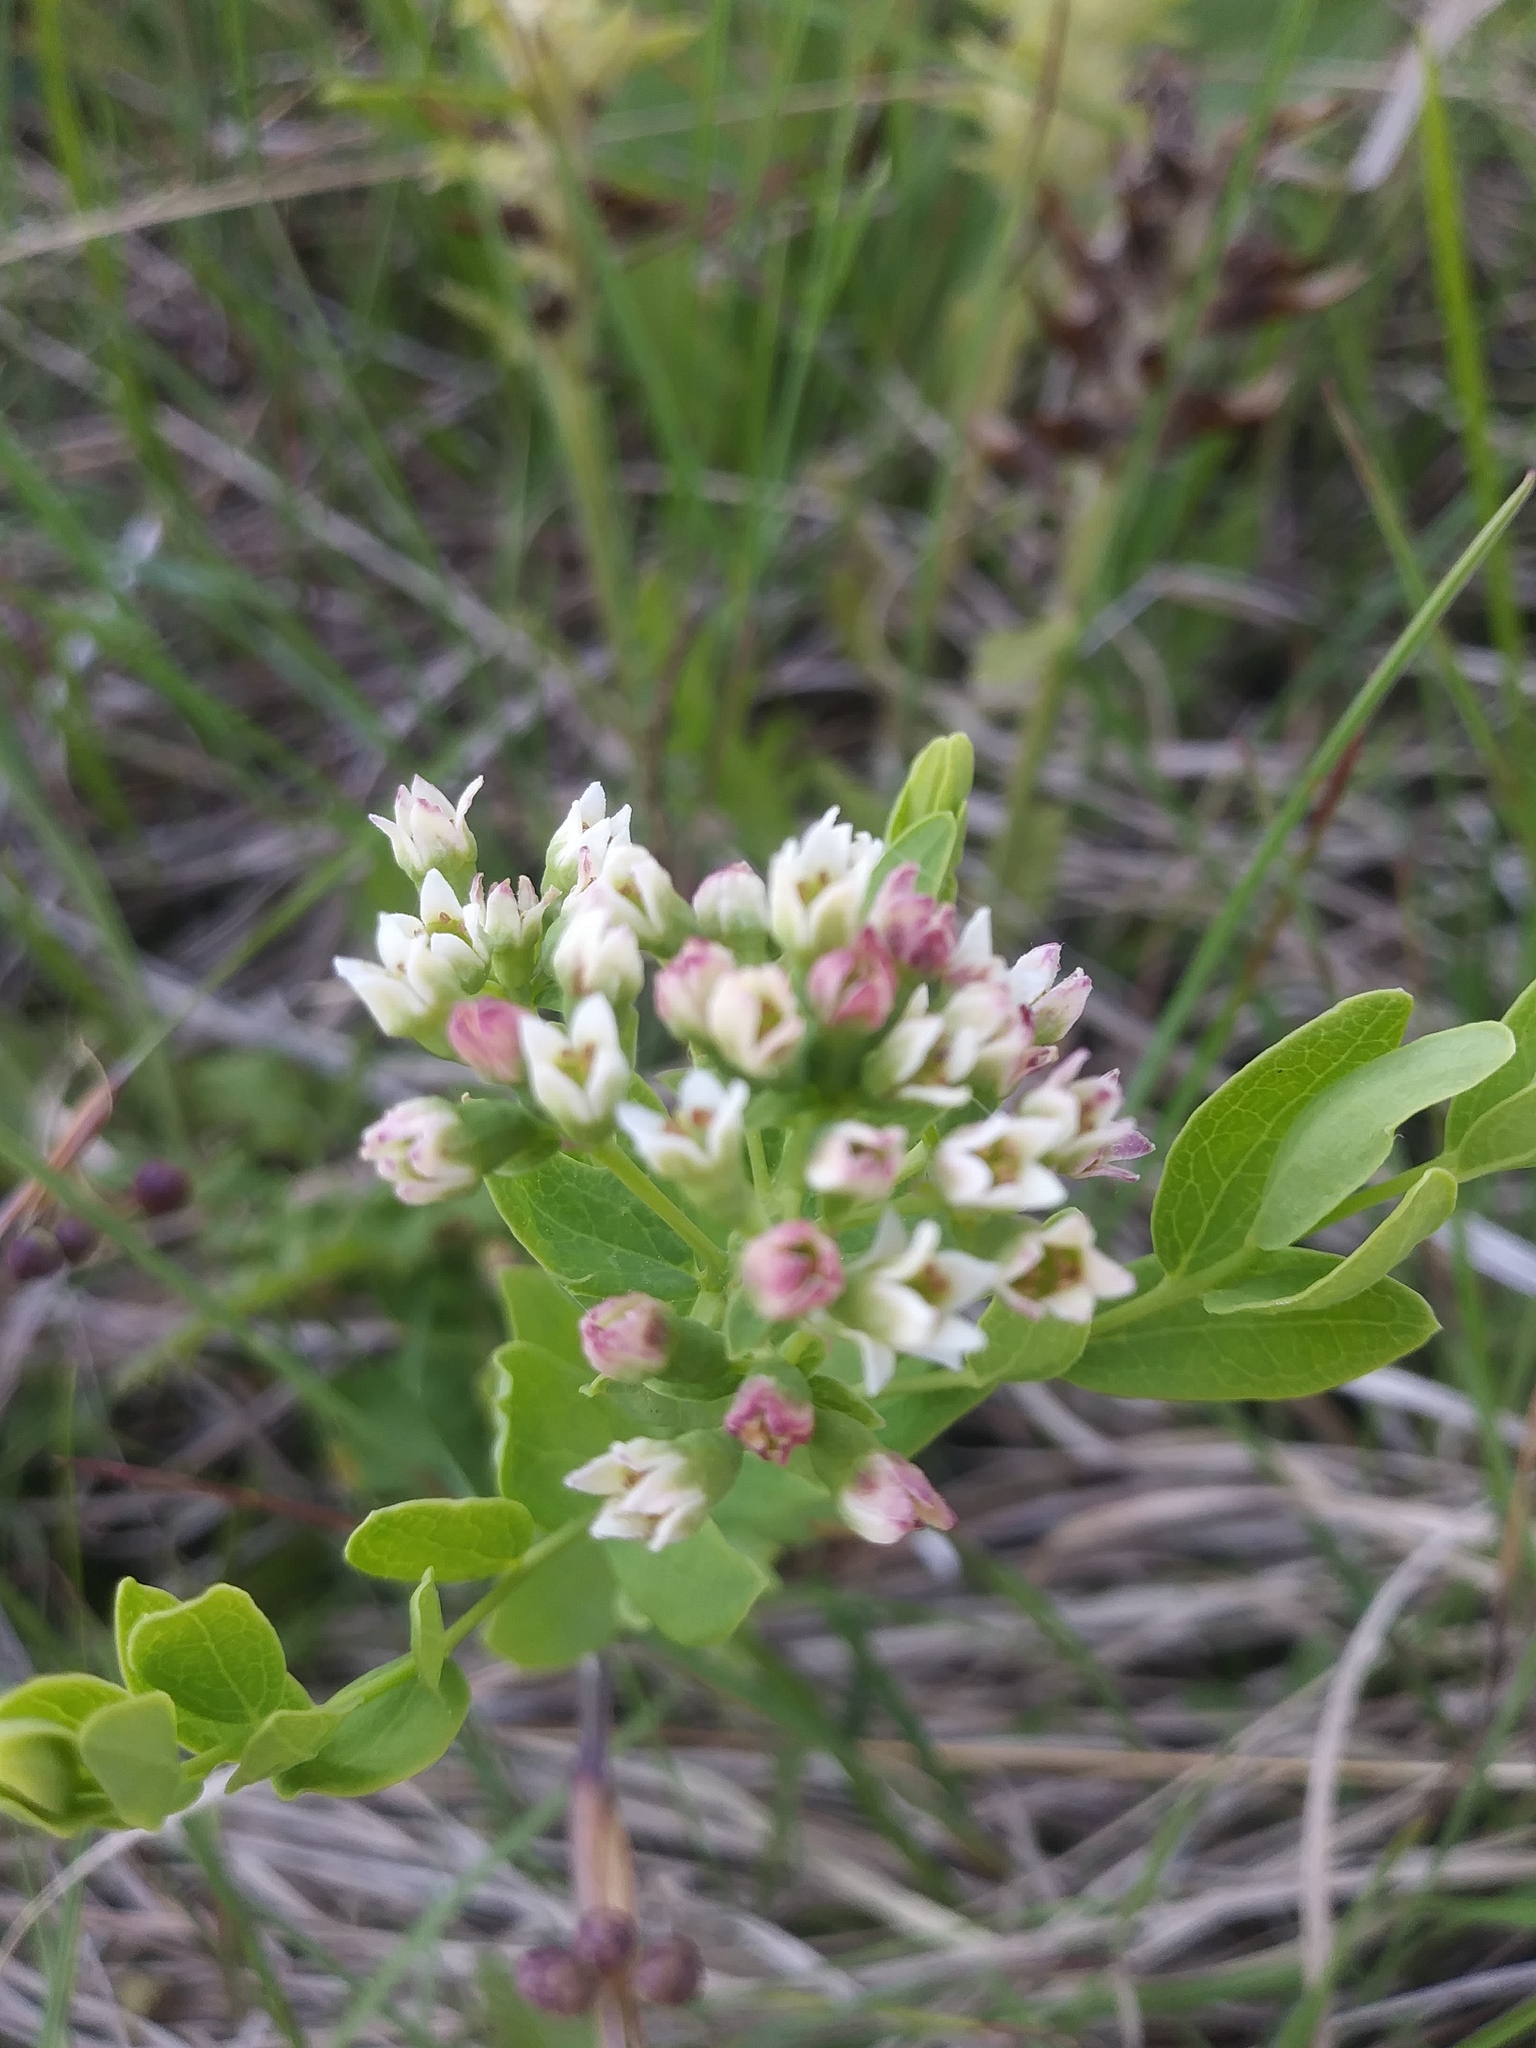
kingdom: Plantae
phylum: Tracheophyta
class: Magnoliopsida
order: Santalales
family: Comandraceae
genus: Comandra
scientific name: Comandra umbellata
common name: Bastard toadflax
